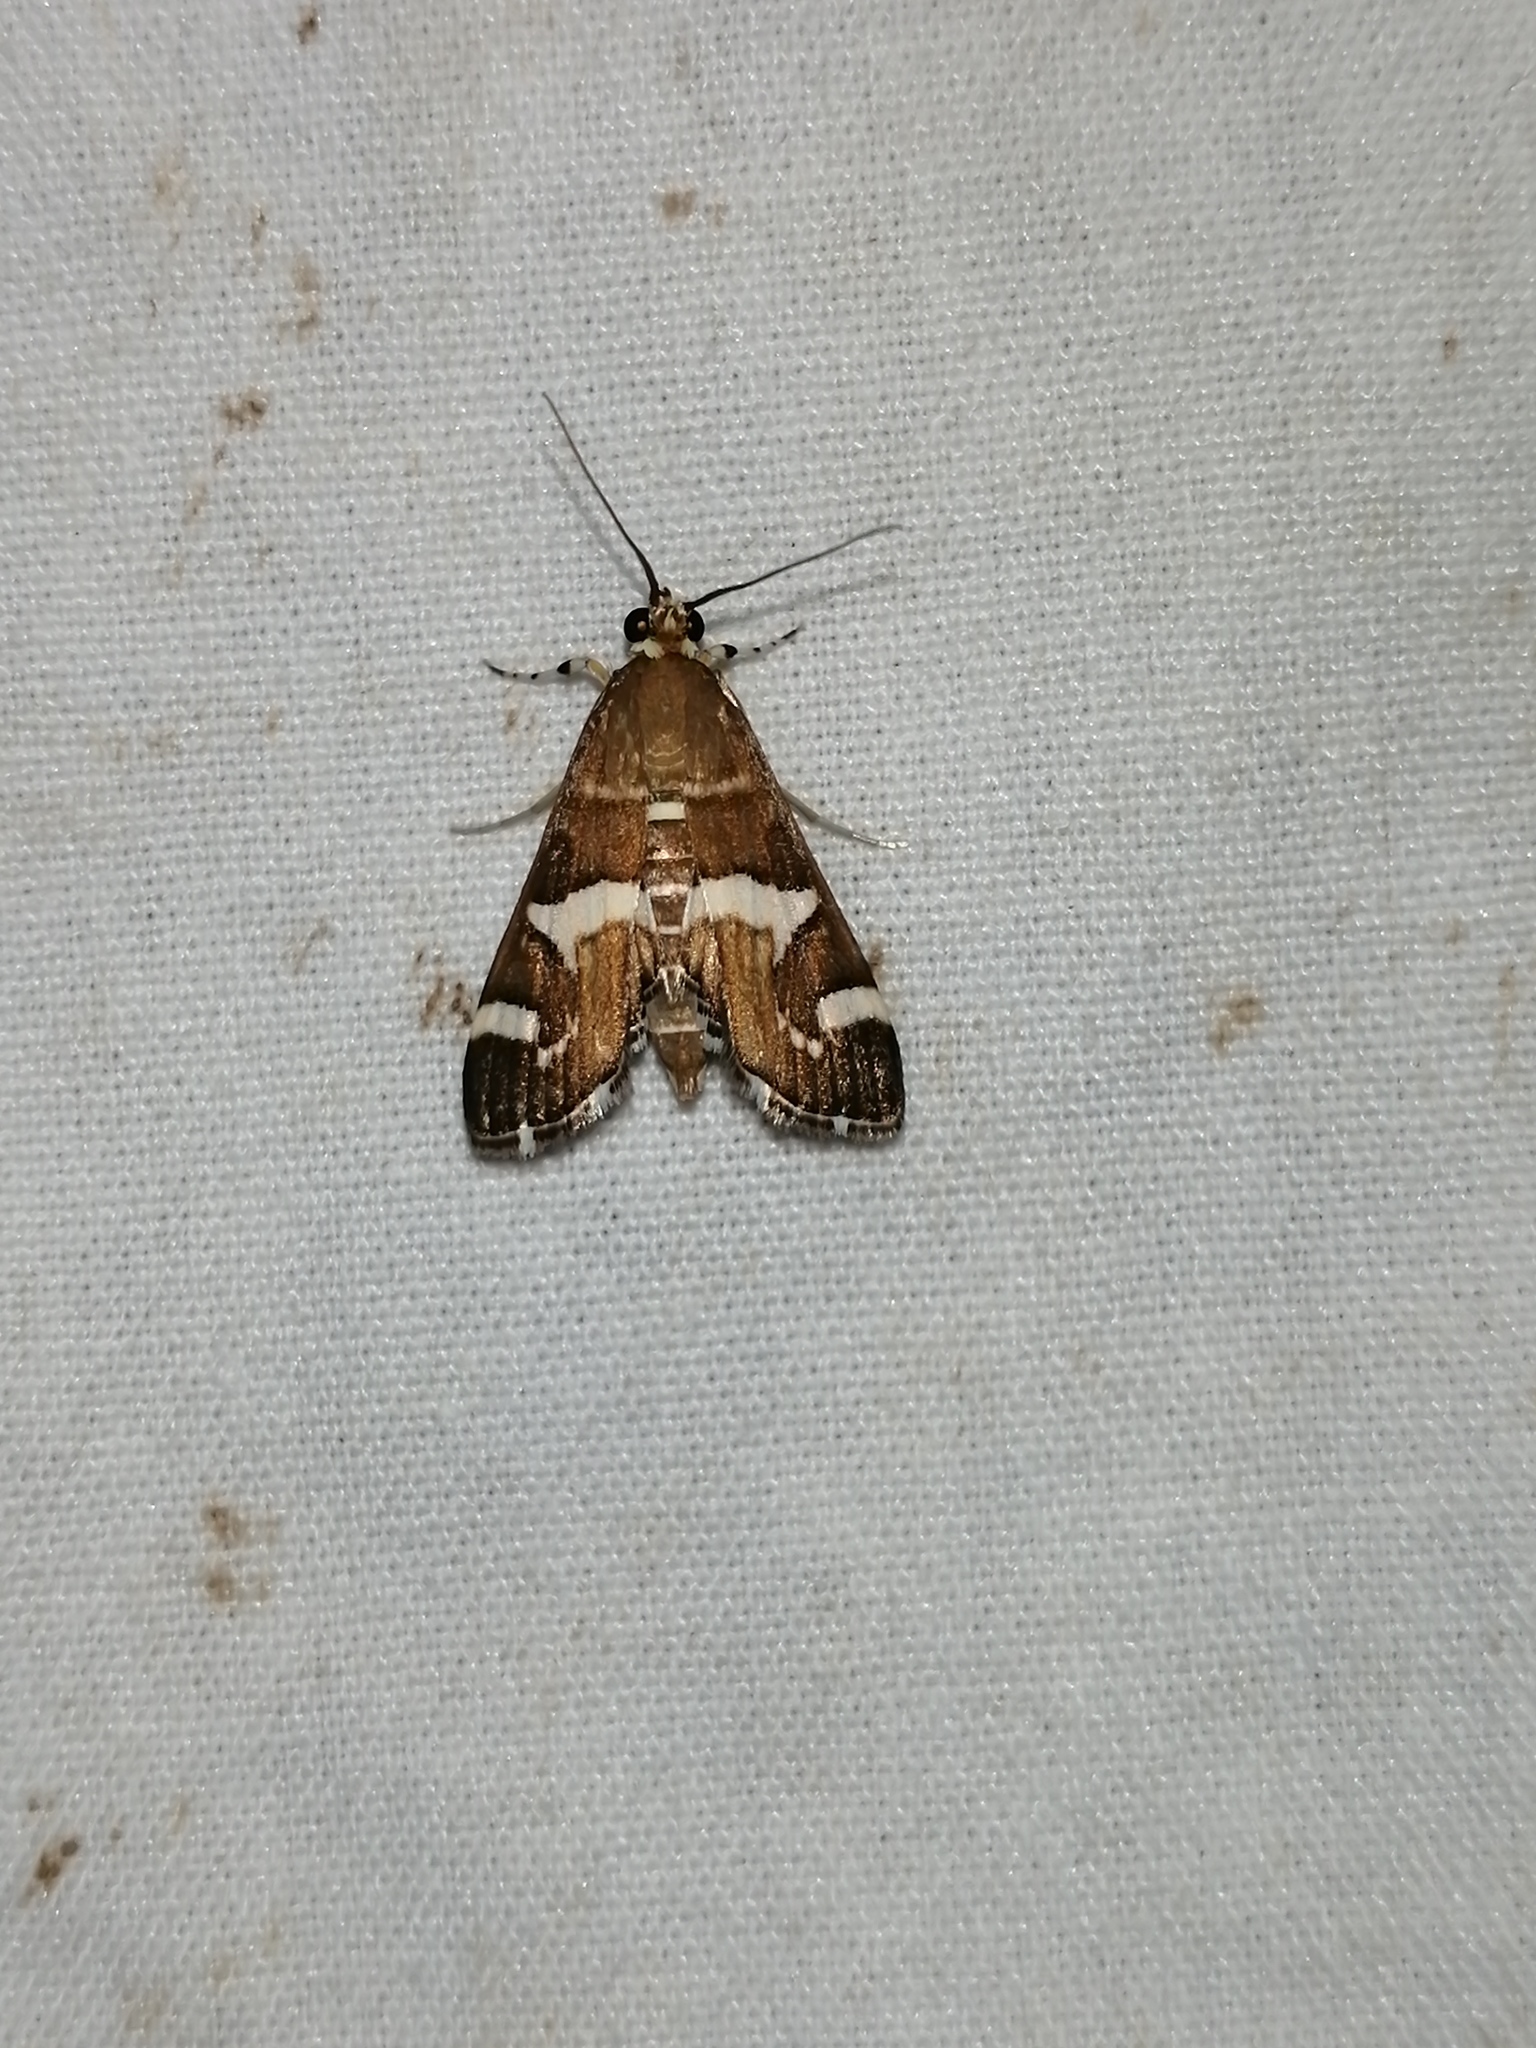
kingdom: Animalia
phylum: Arthropoda
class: Insecta
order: Lepidoptera
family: Crambidae
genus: Spoladea
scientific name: Spoladea recurvalis
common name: Beet webworm moth
